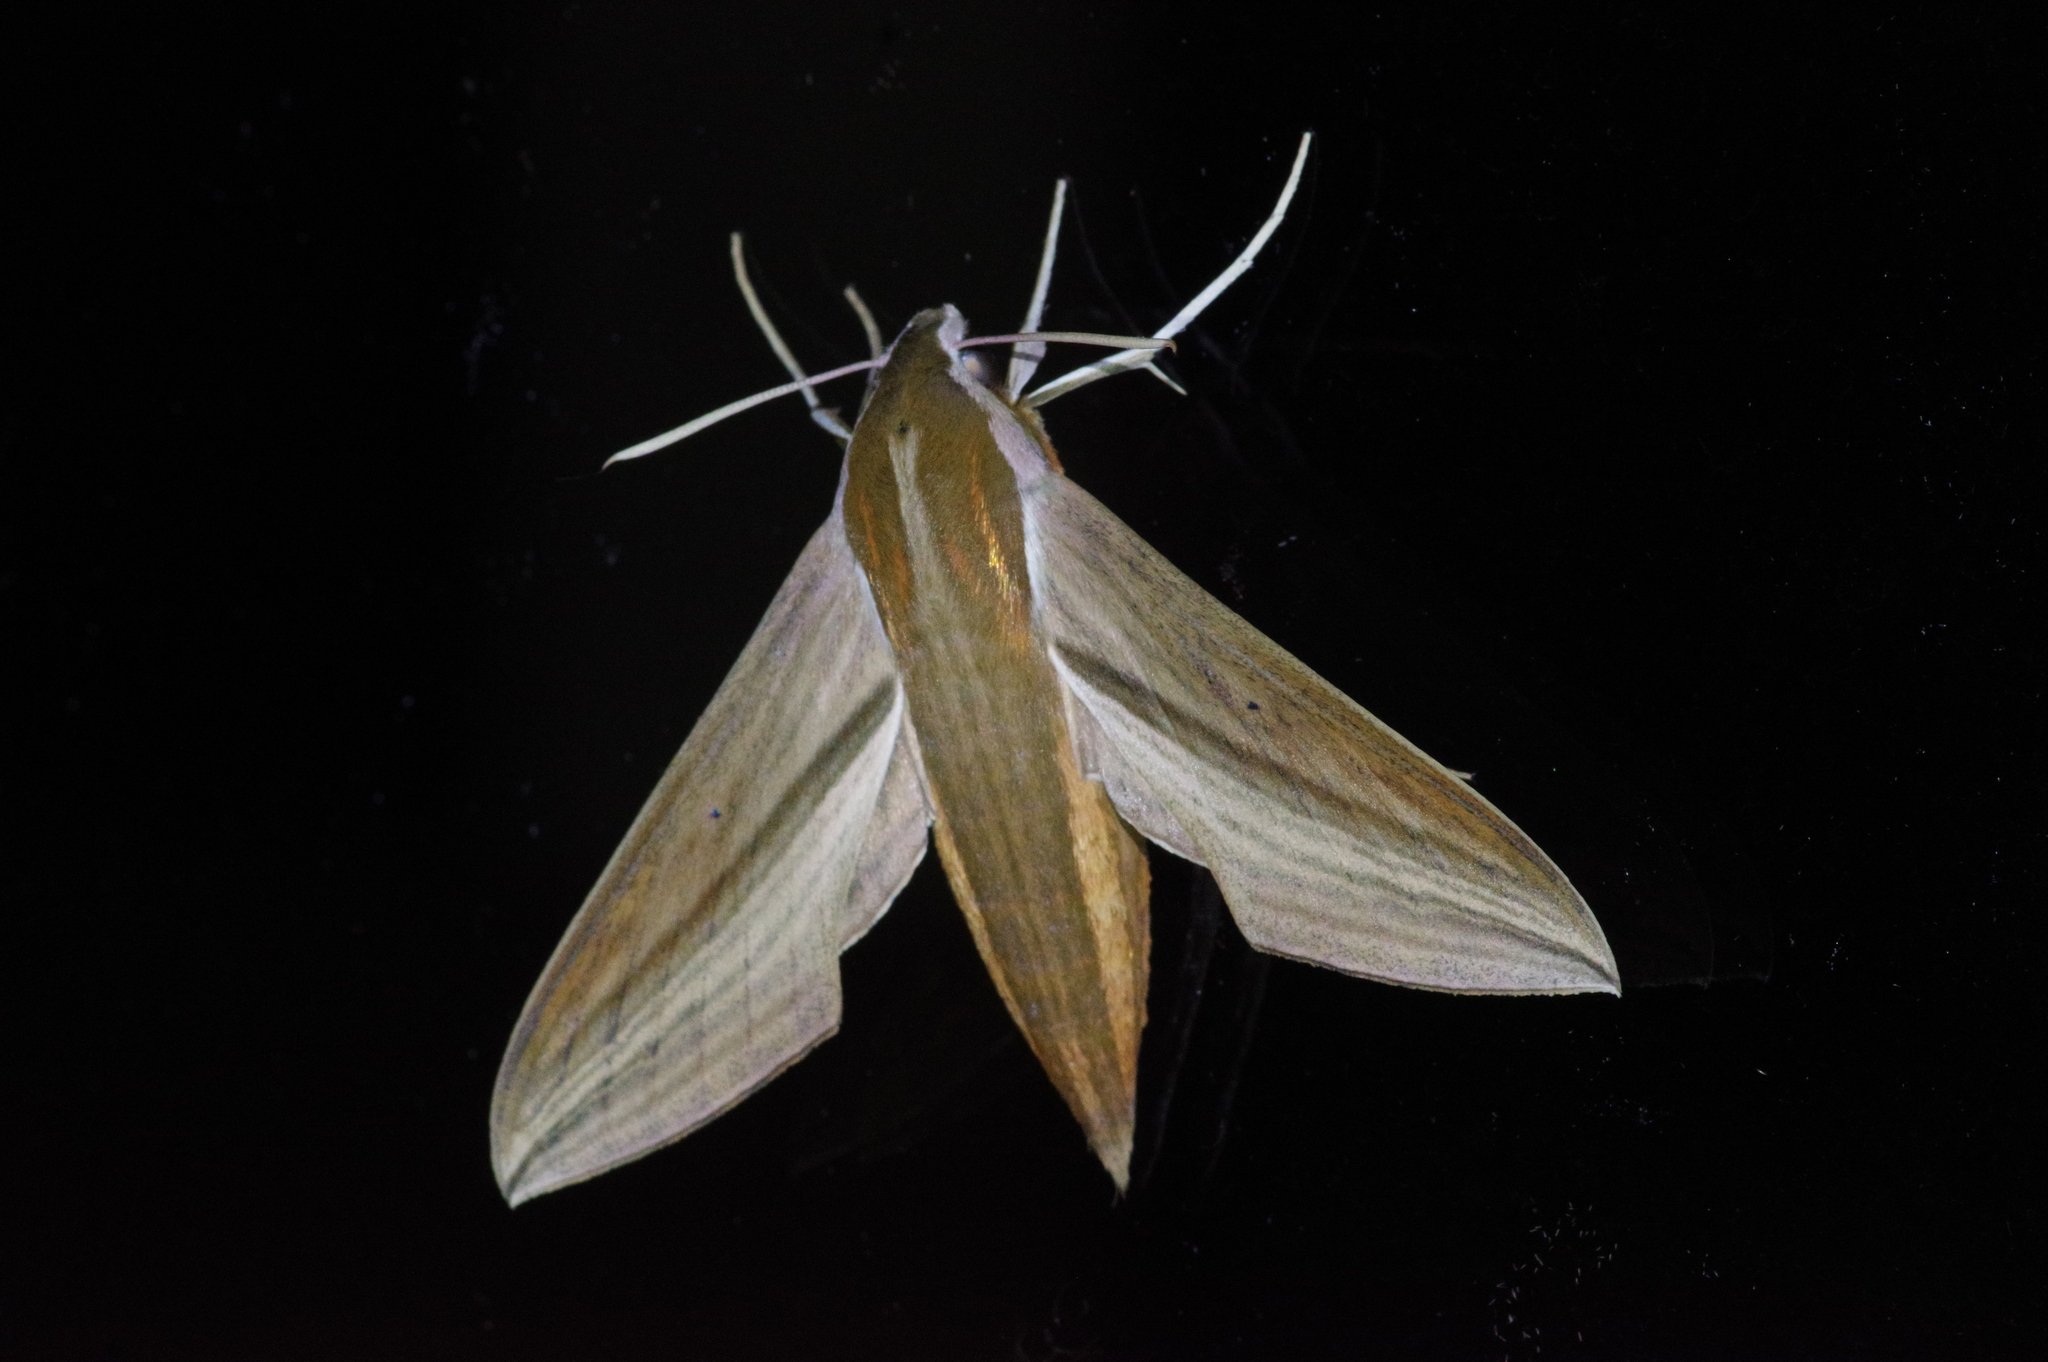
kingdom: Animalia
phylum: Arthropoda
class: Insecta
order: Lepidoptera
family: Sphingidae
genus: Theretra
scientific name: Theretra japonica
